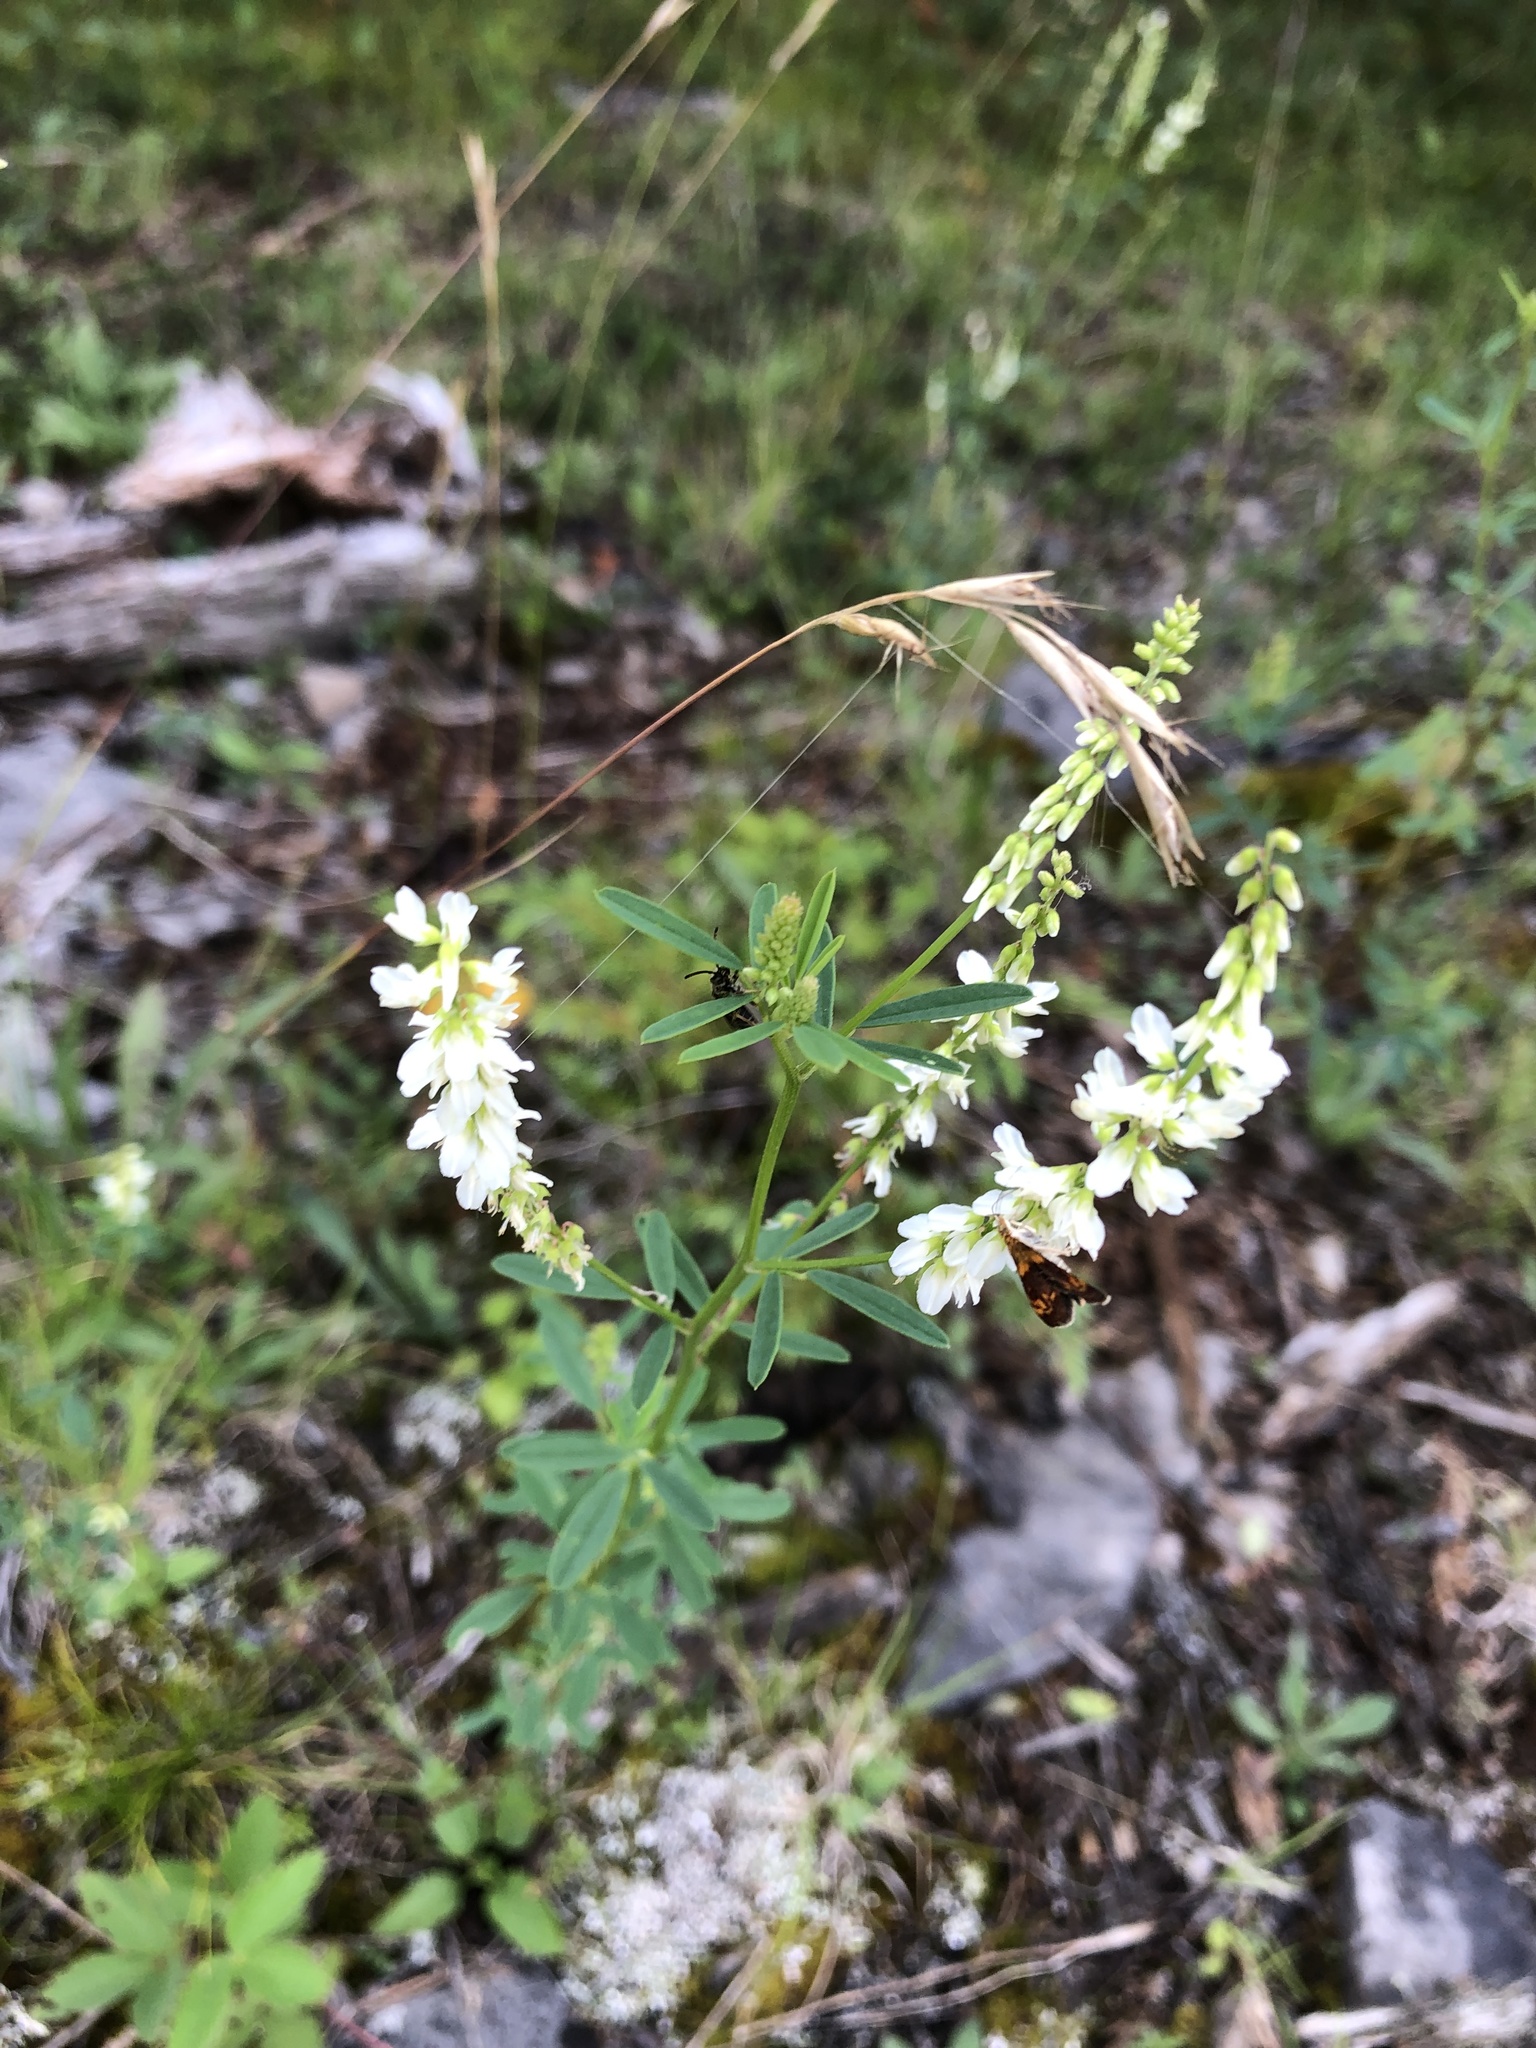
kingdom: Plantae
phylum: Tracheophyta
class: Magnoliopsida
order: Fabales
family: Fabaceae
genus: Melilotus
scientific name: Melilotus albus
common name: White melilot
